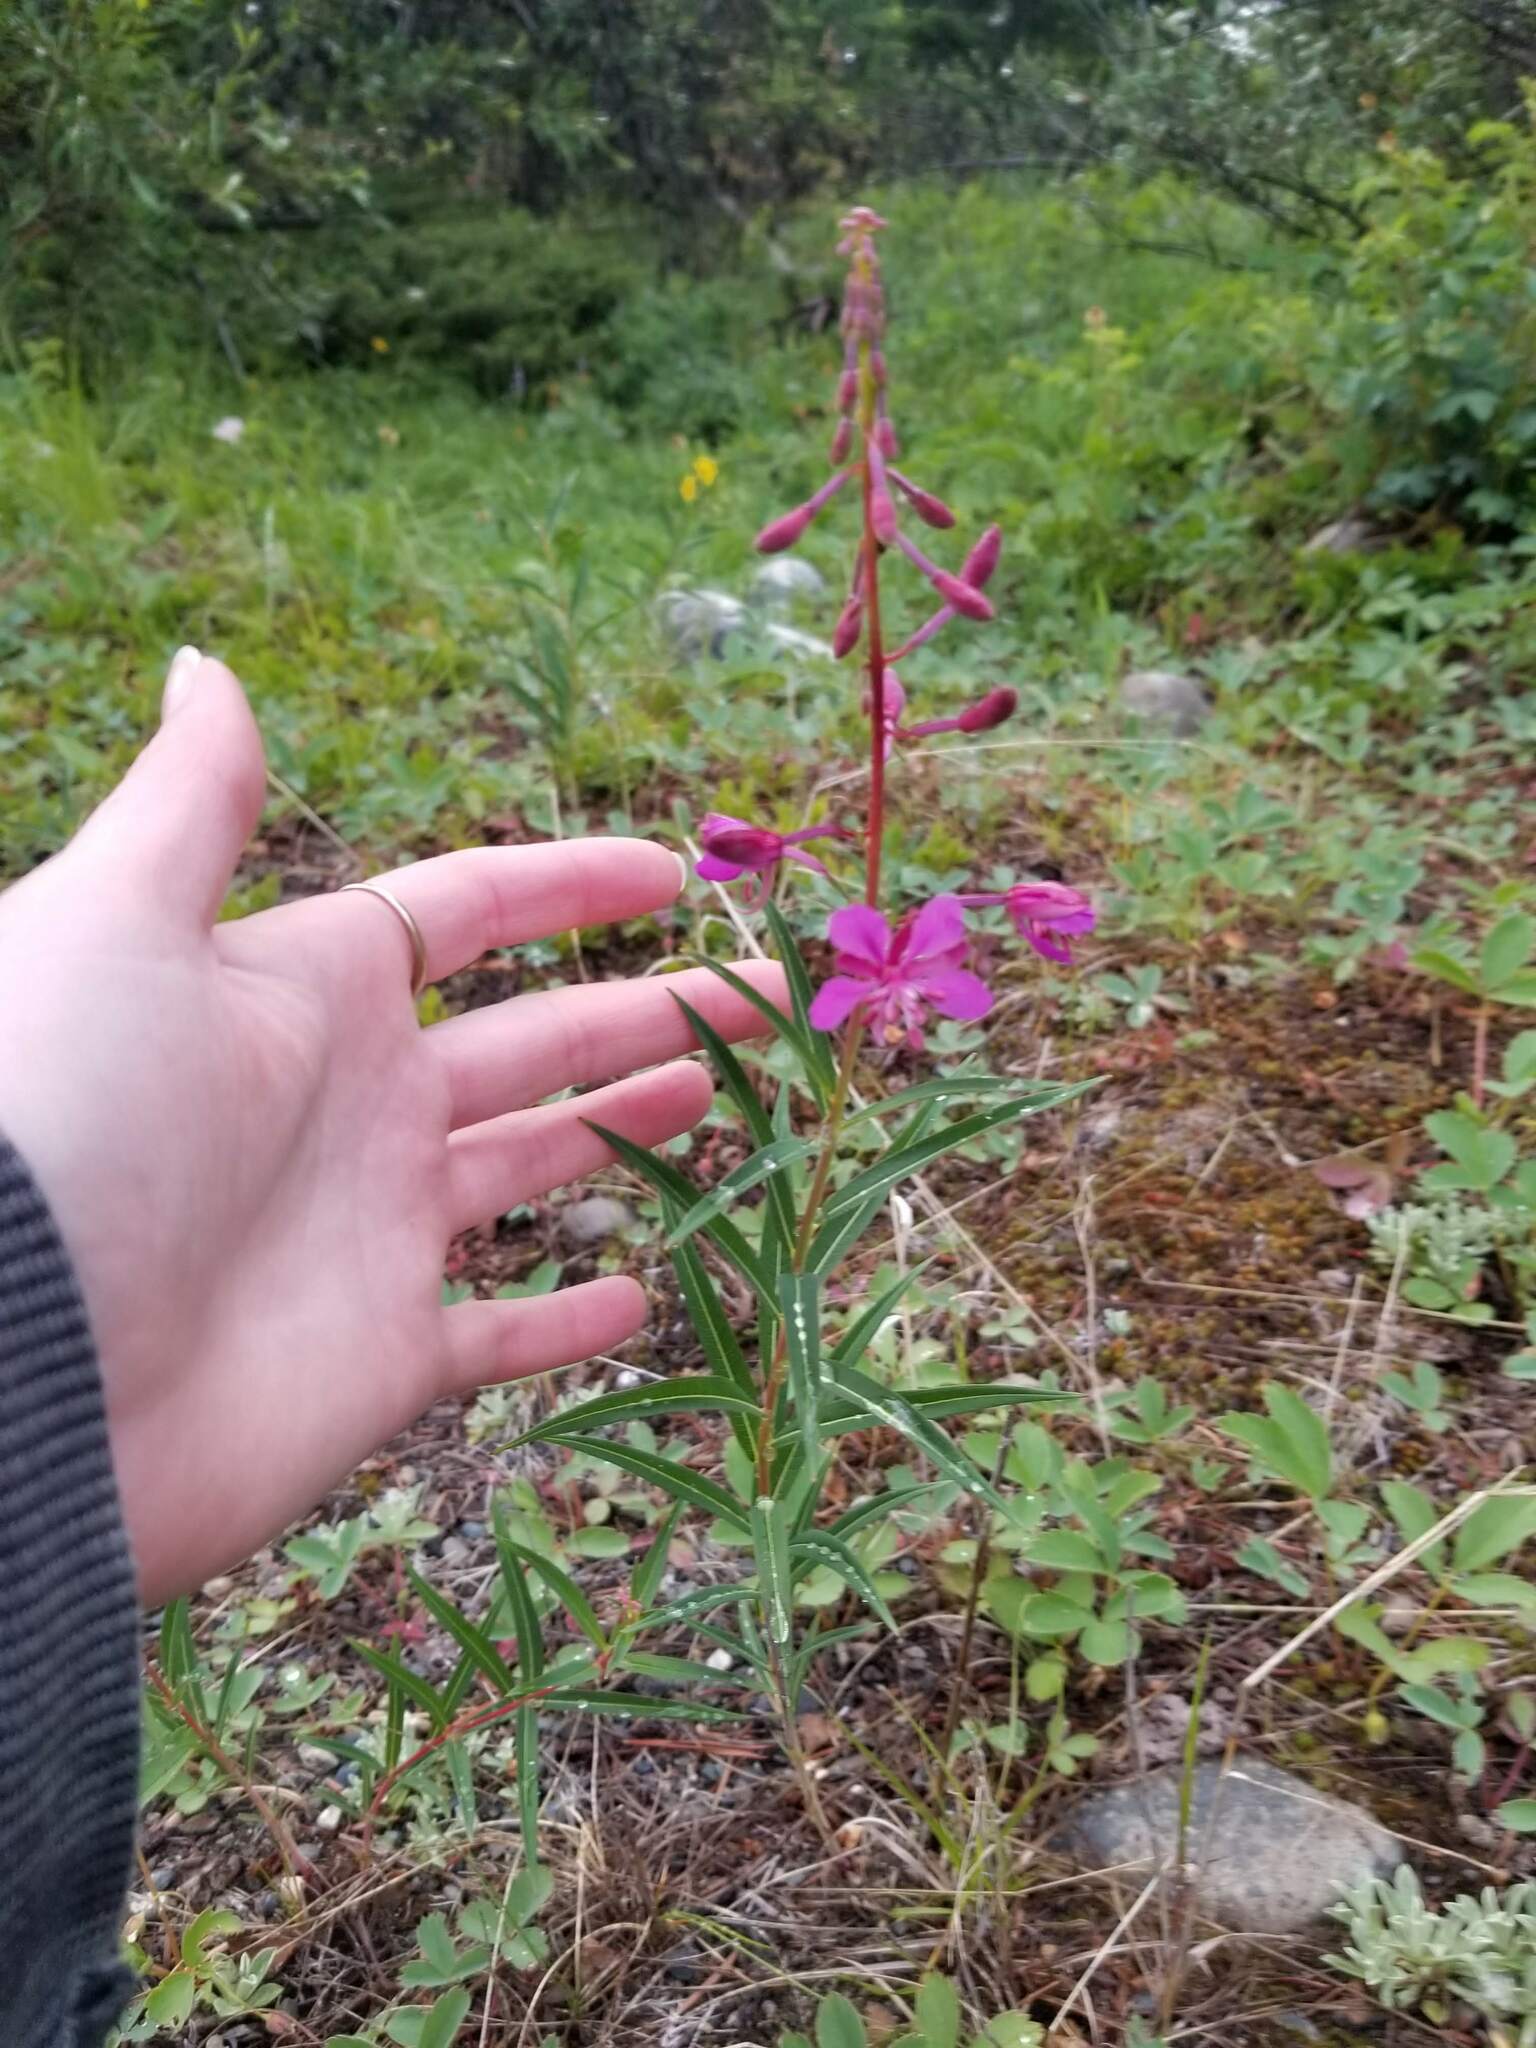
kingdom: Plantae
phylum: Tracheophyta
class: Magnoliopsida
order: Myrtales
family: Onagraceae
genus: Chamaenerion
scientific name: Chamaenerion angustifolium
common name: Fireweed
